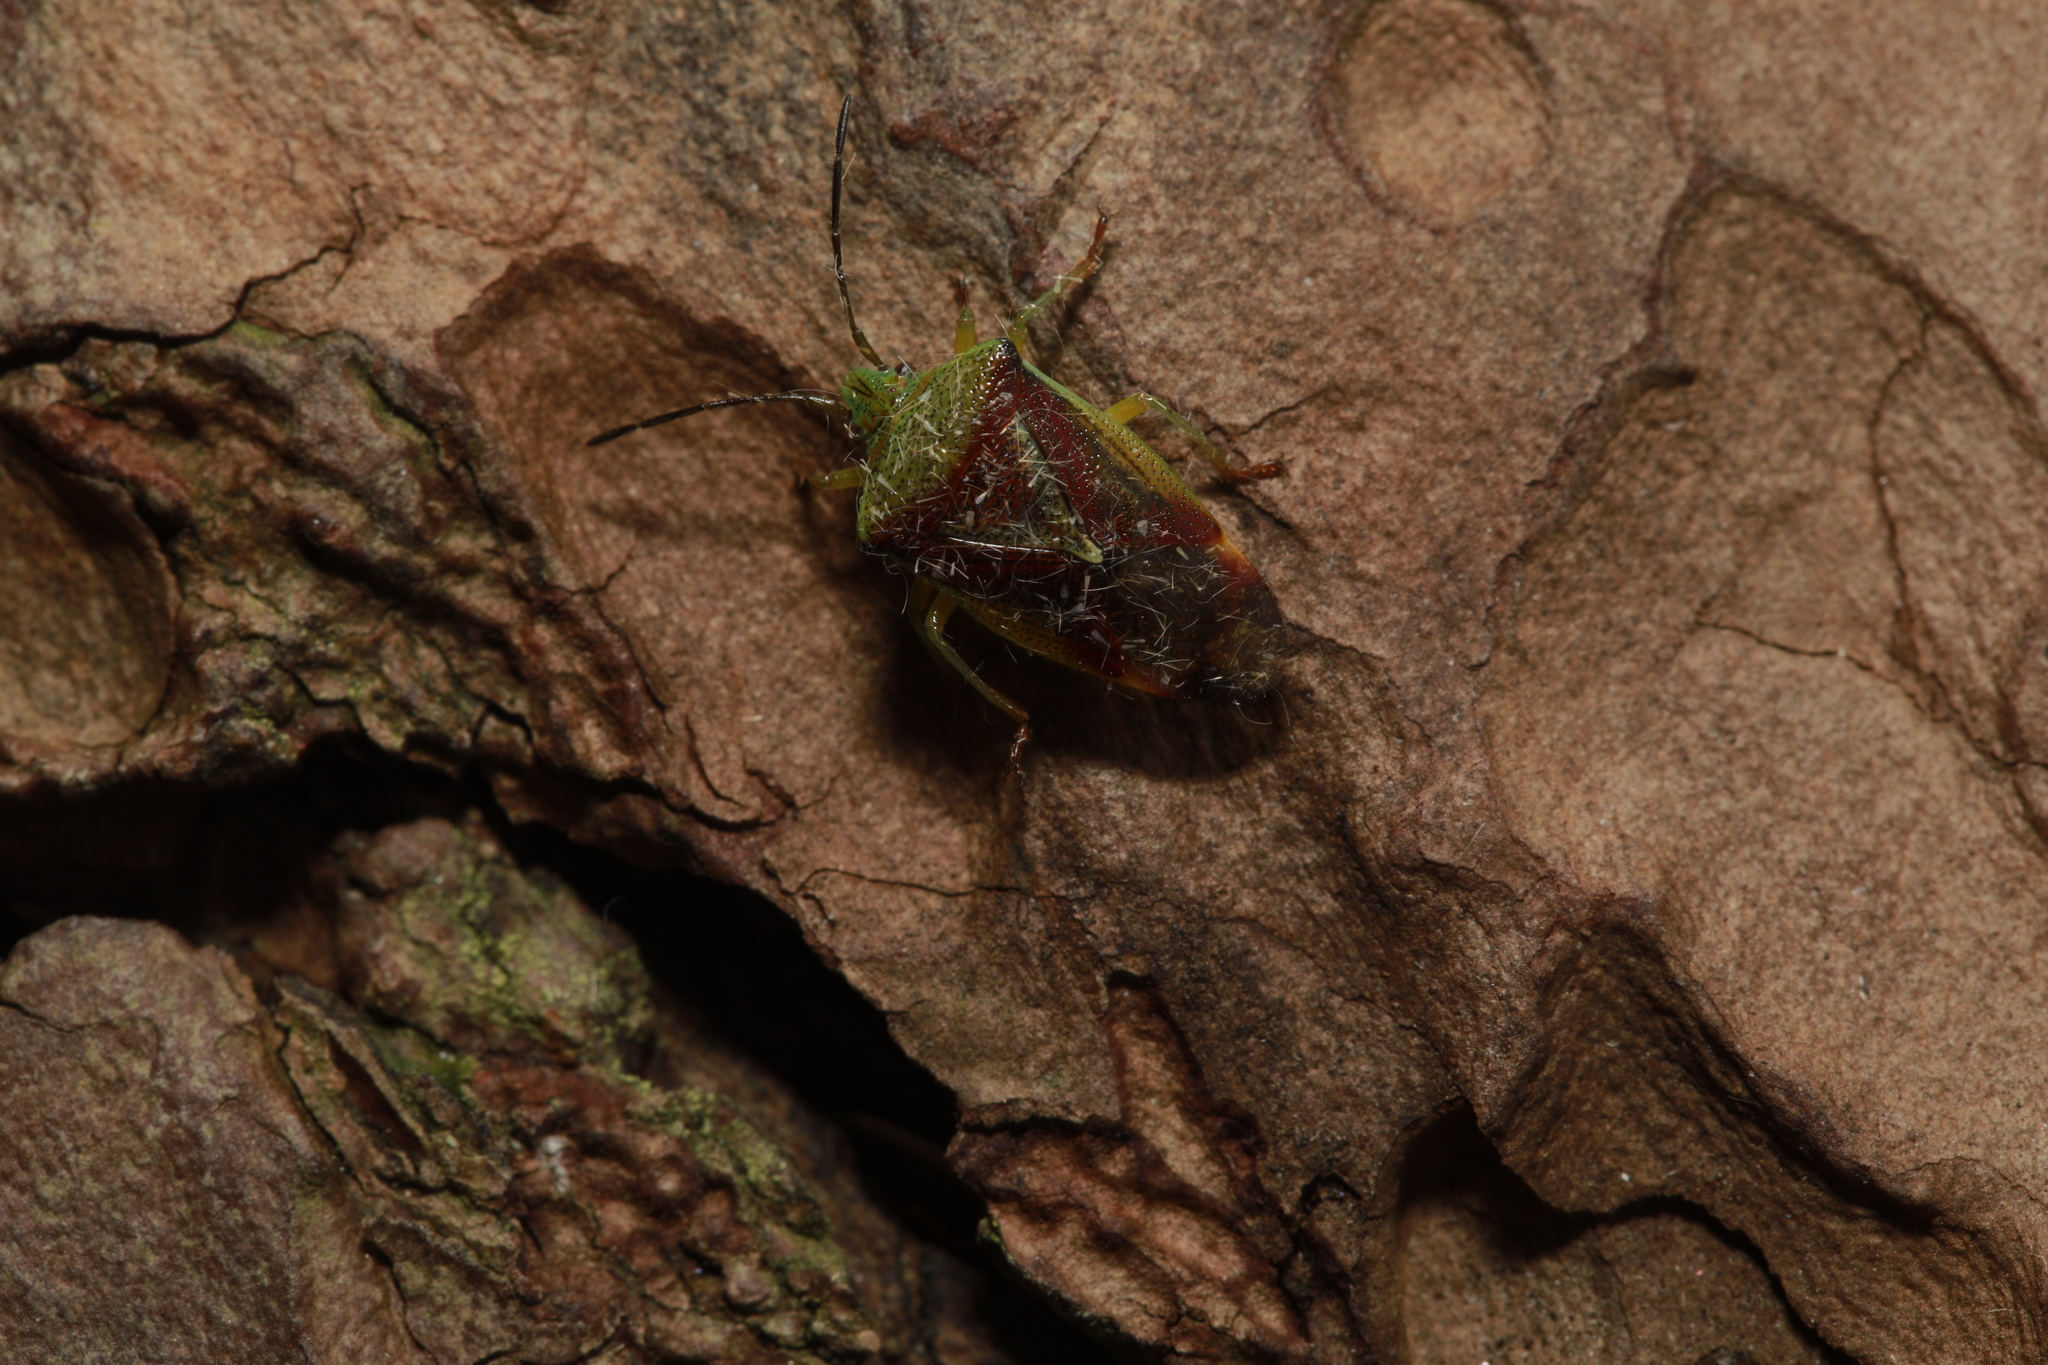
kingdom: Animalia
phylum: Arthropoda
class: Insecta
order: Hemiptera
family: Acanthosomatidae
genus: Elasmostethus
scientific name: Elasmostethus interstinctus
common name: Birch shieldbug
